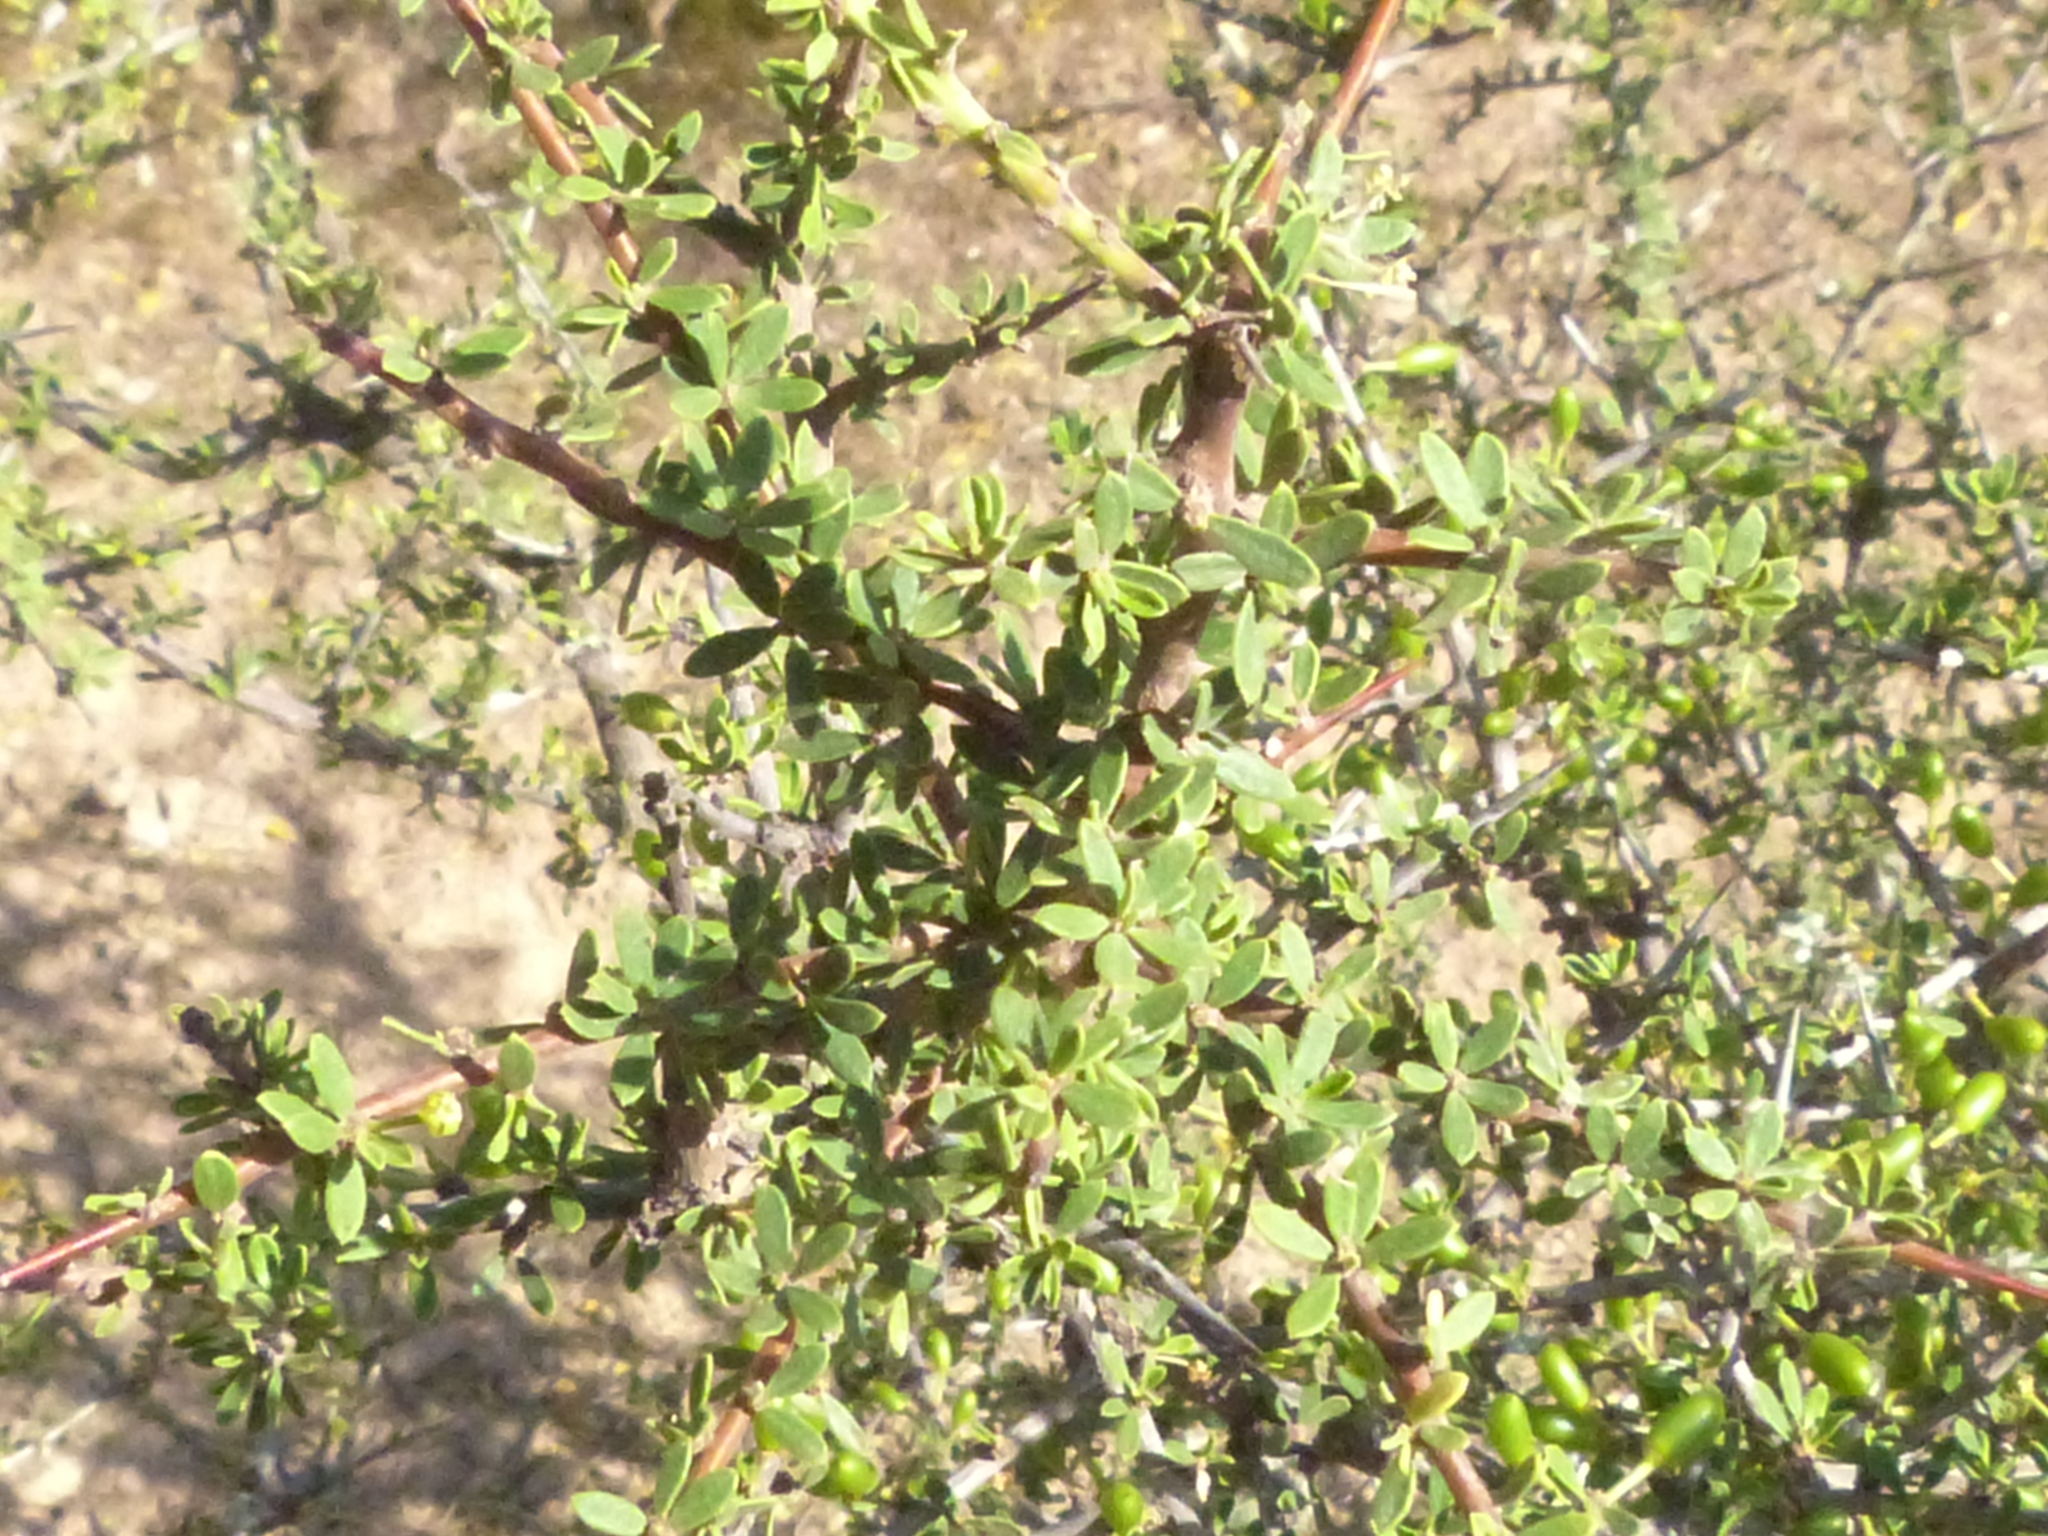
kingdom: Plantae
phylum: Tracheophyta
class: Magnoliopsida
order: Rosales
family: Rhamnaceae
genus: Condalia
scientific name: Condalia microphylla
